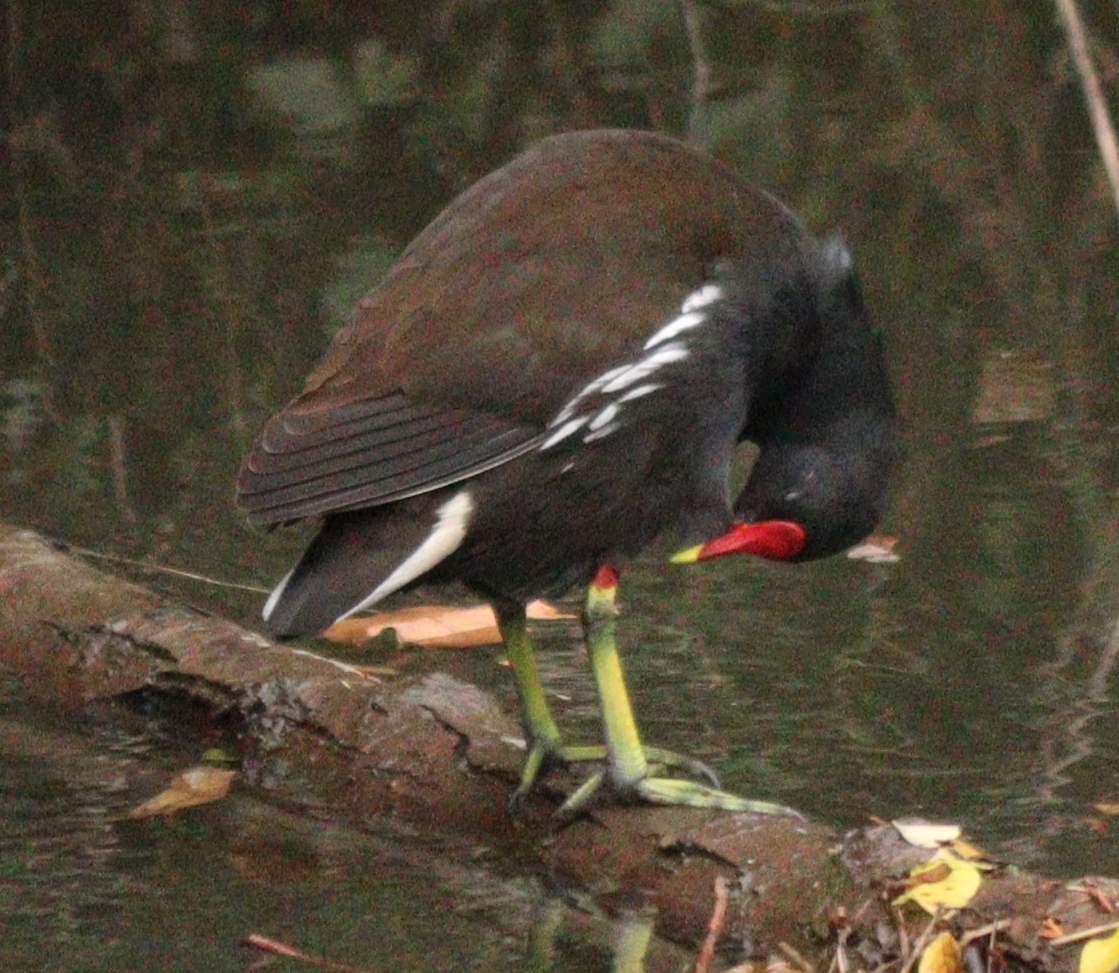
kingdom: Animalia
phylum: Chordata
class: Aves
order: Gruiformes
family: Rallidae
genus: Gallinula
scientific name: Gallinula chloropus
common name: Common moorhen
